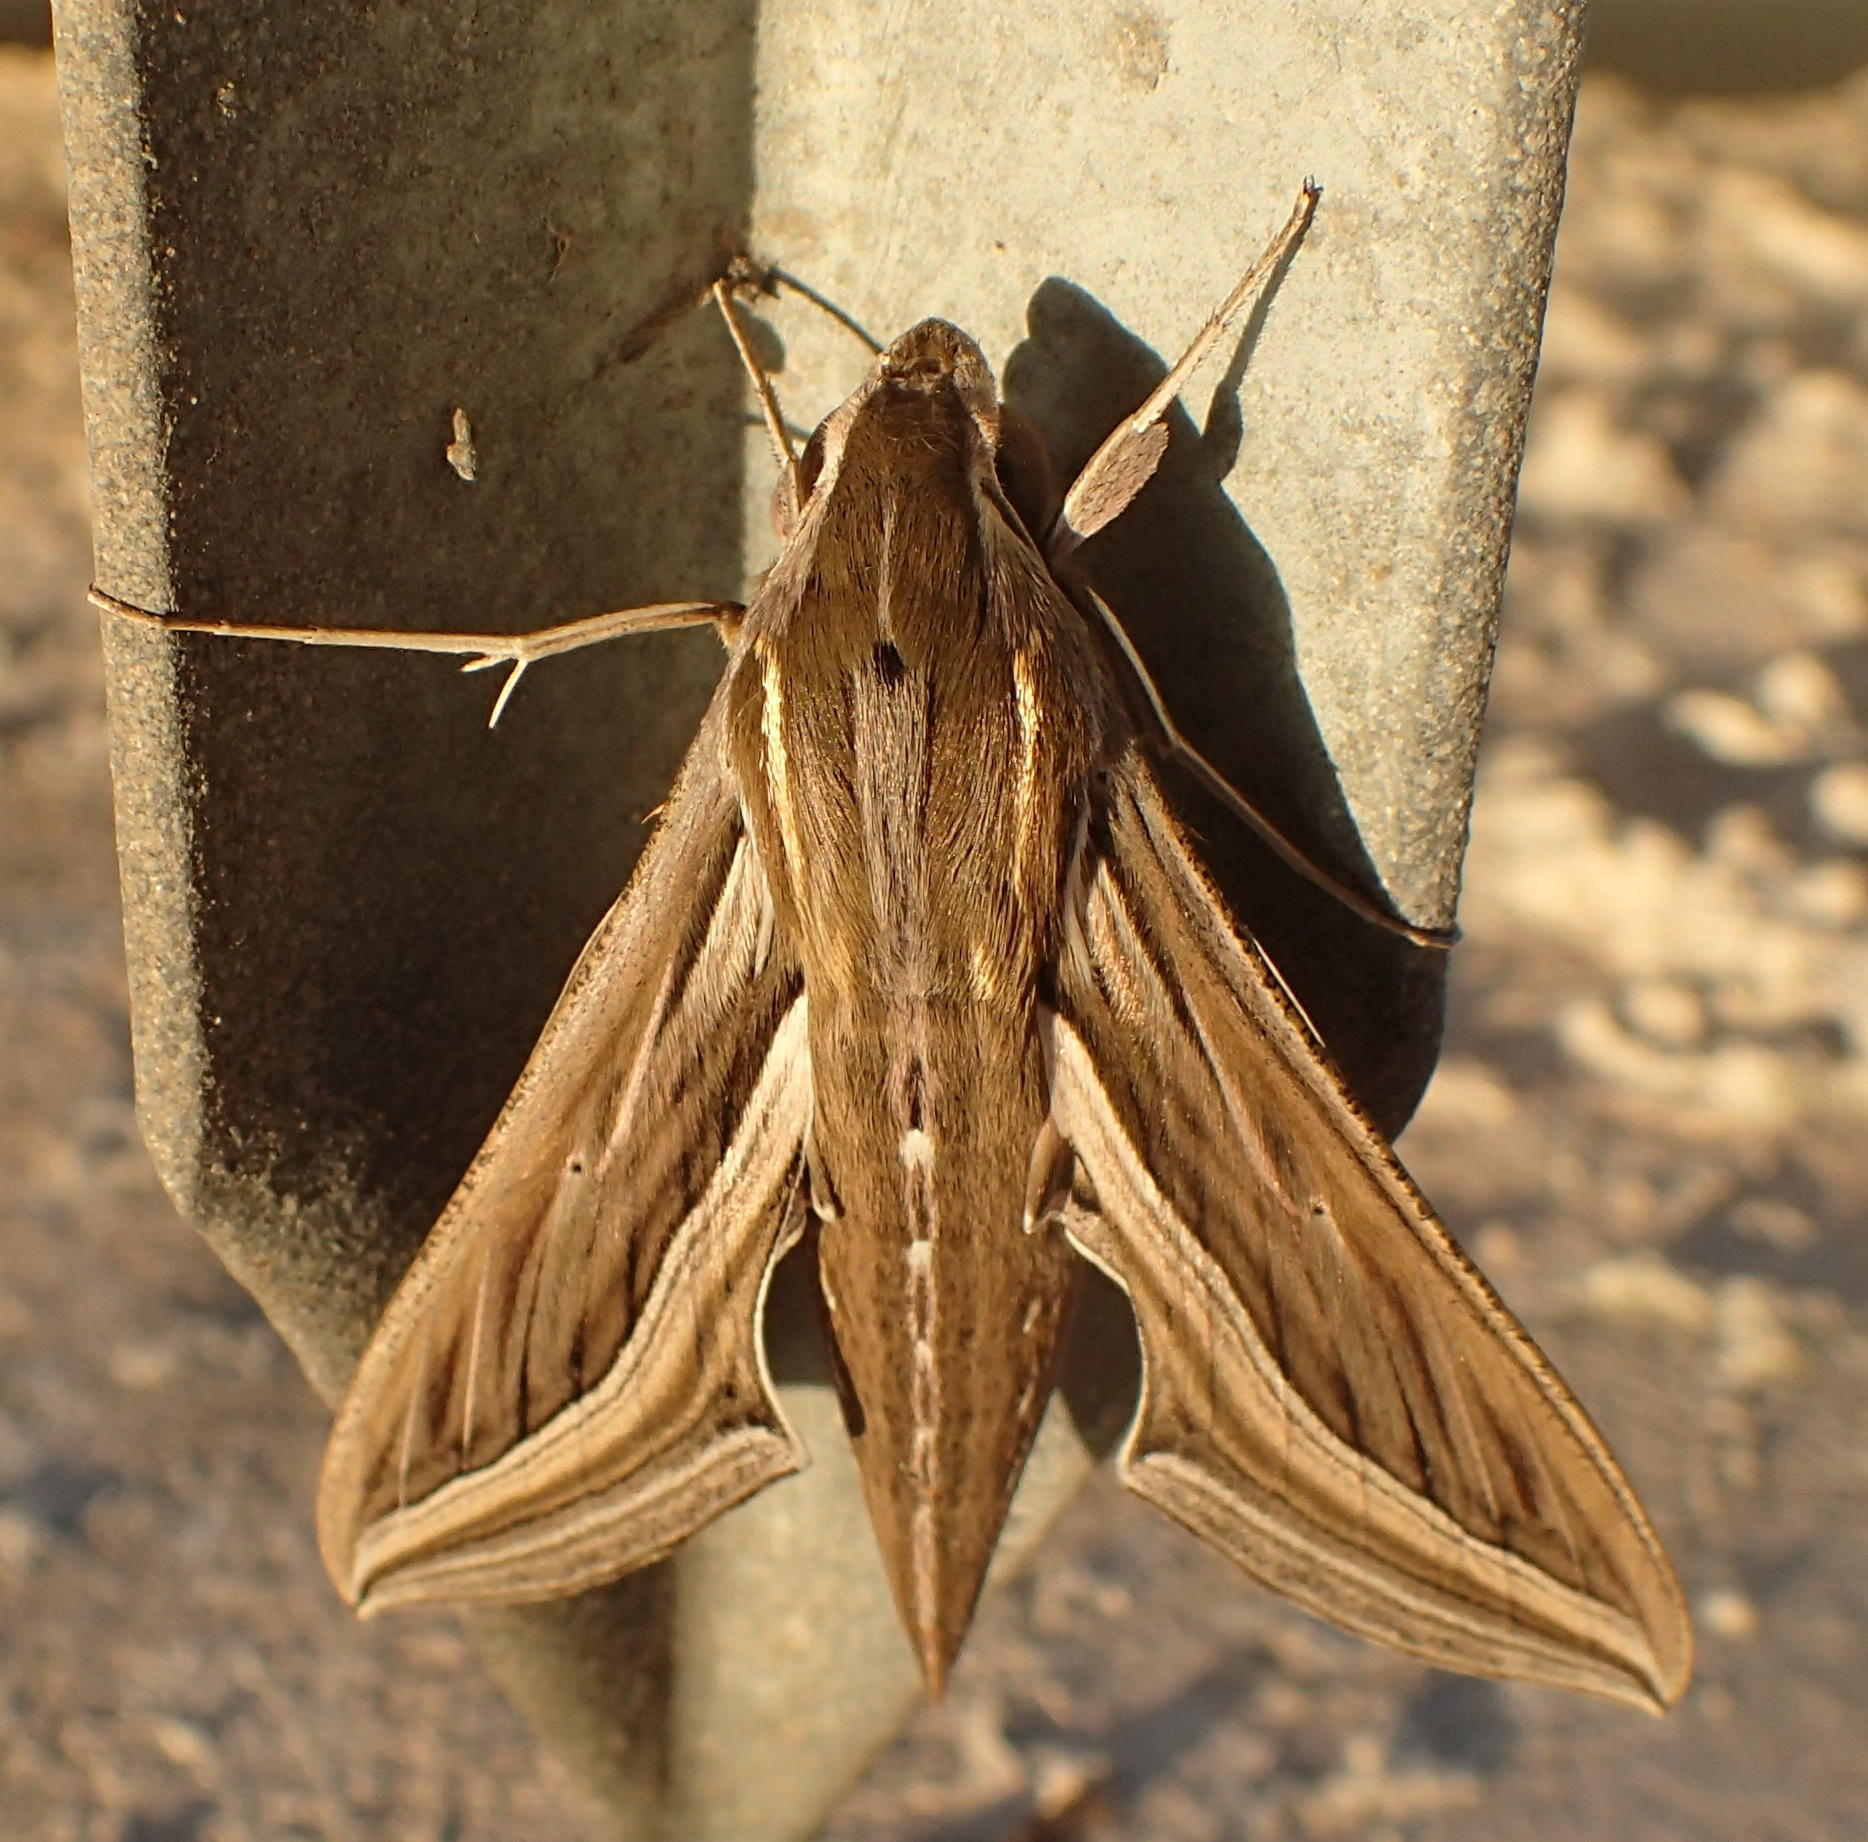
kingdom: Animalia
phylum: Arthropoda
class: Insecta
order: Lepidoptera
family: Sphingidae
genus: Hippotion
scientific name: Hippotion celerio
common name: Silver-striped hawk-moth
